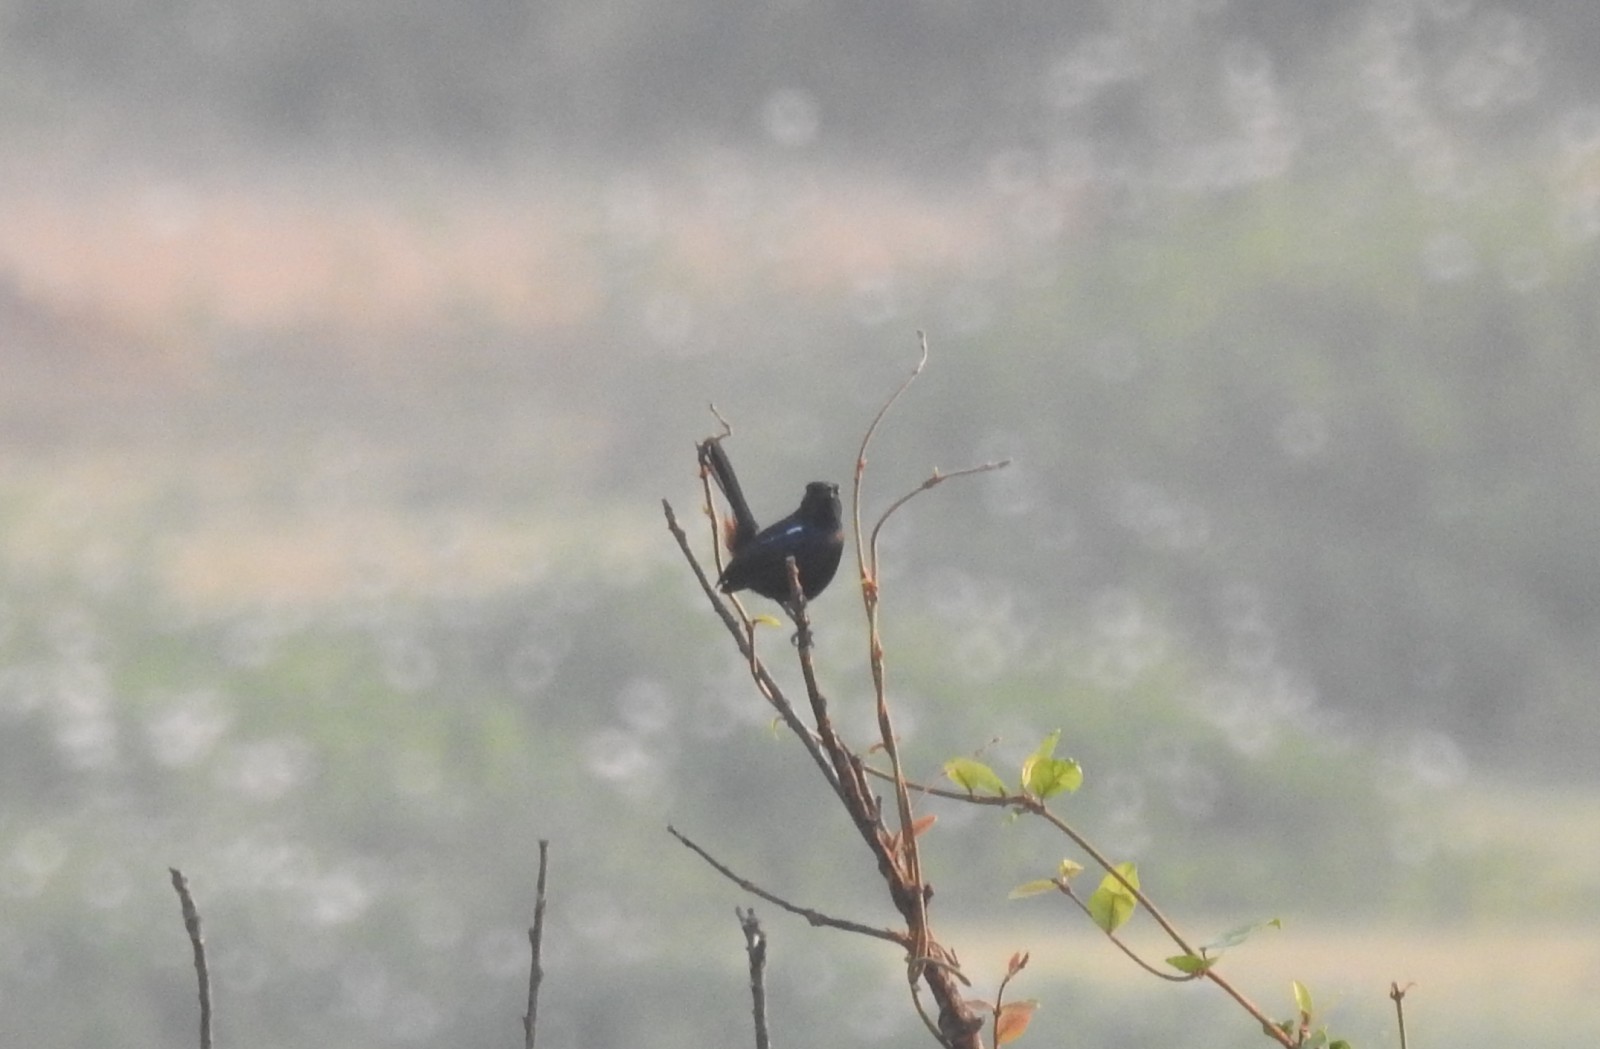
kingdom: Animalia
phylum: Chordata
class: Aves
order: Passeriformes
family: Muscicapidae
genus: Saxicoloides
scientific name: Saxicoloides fulicatus
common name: Indian robin
